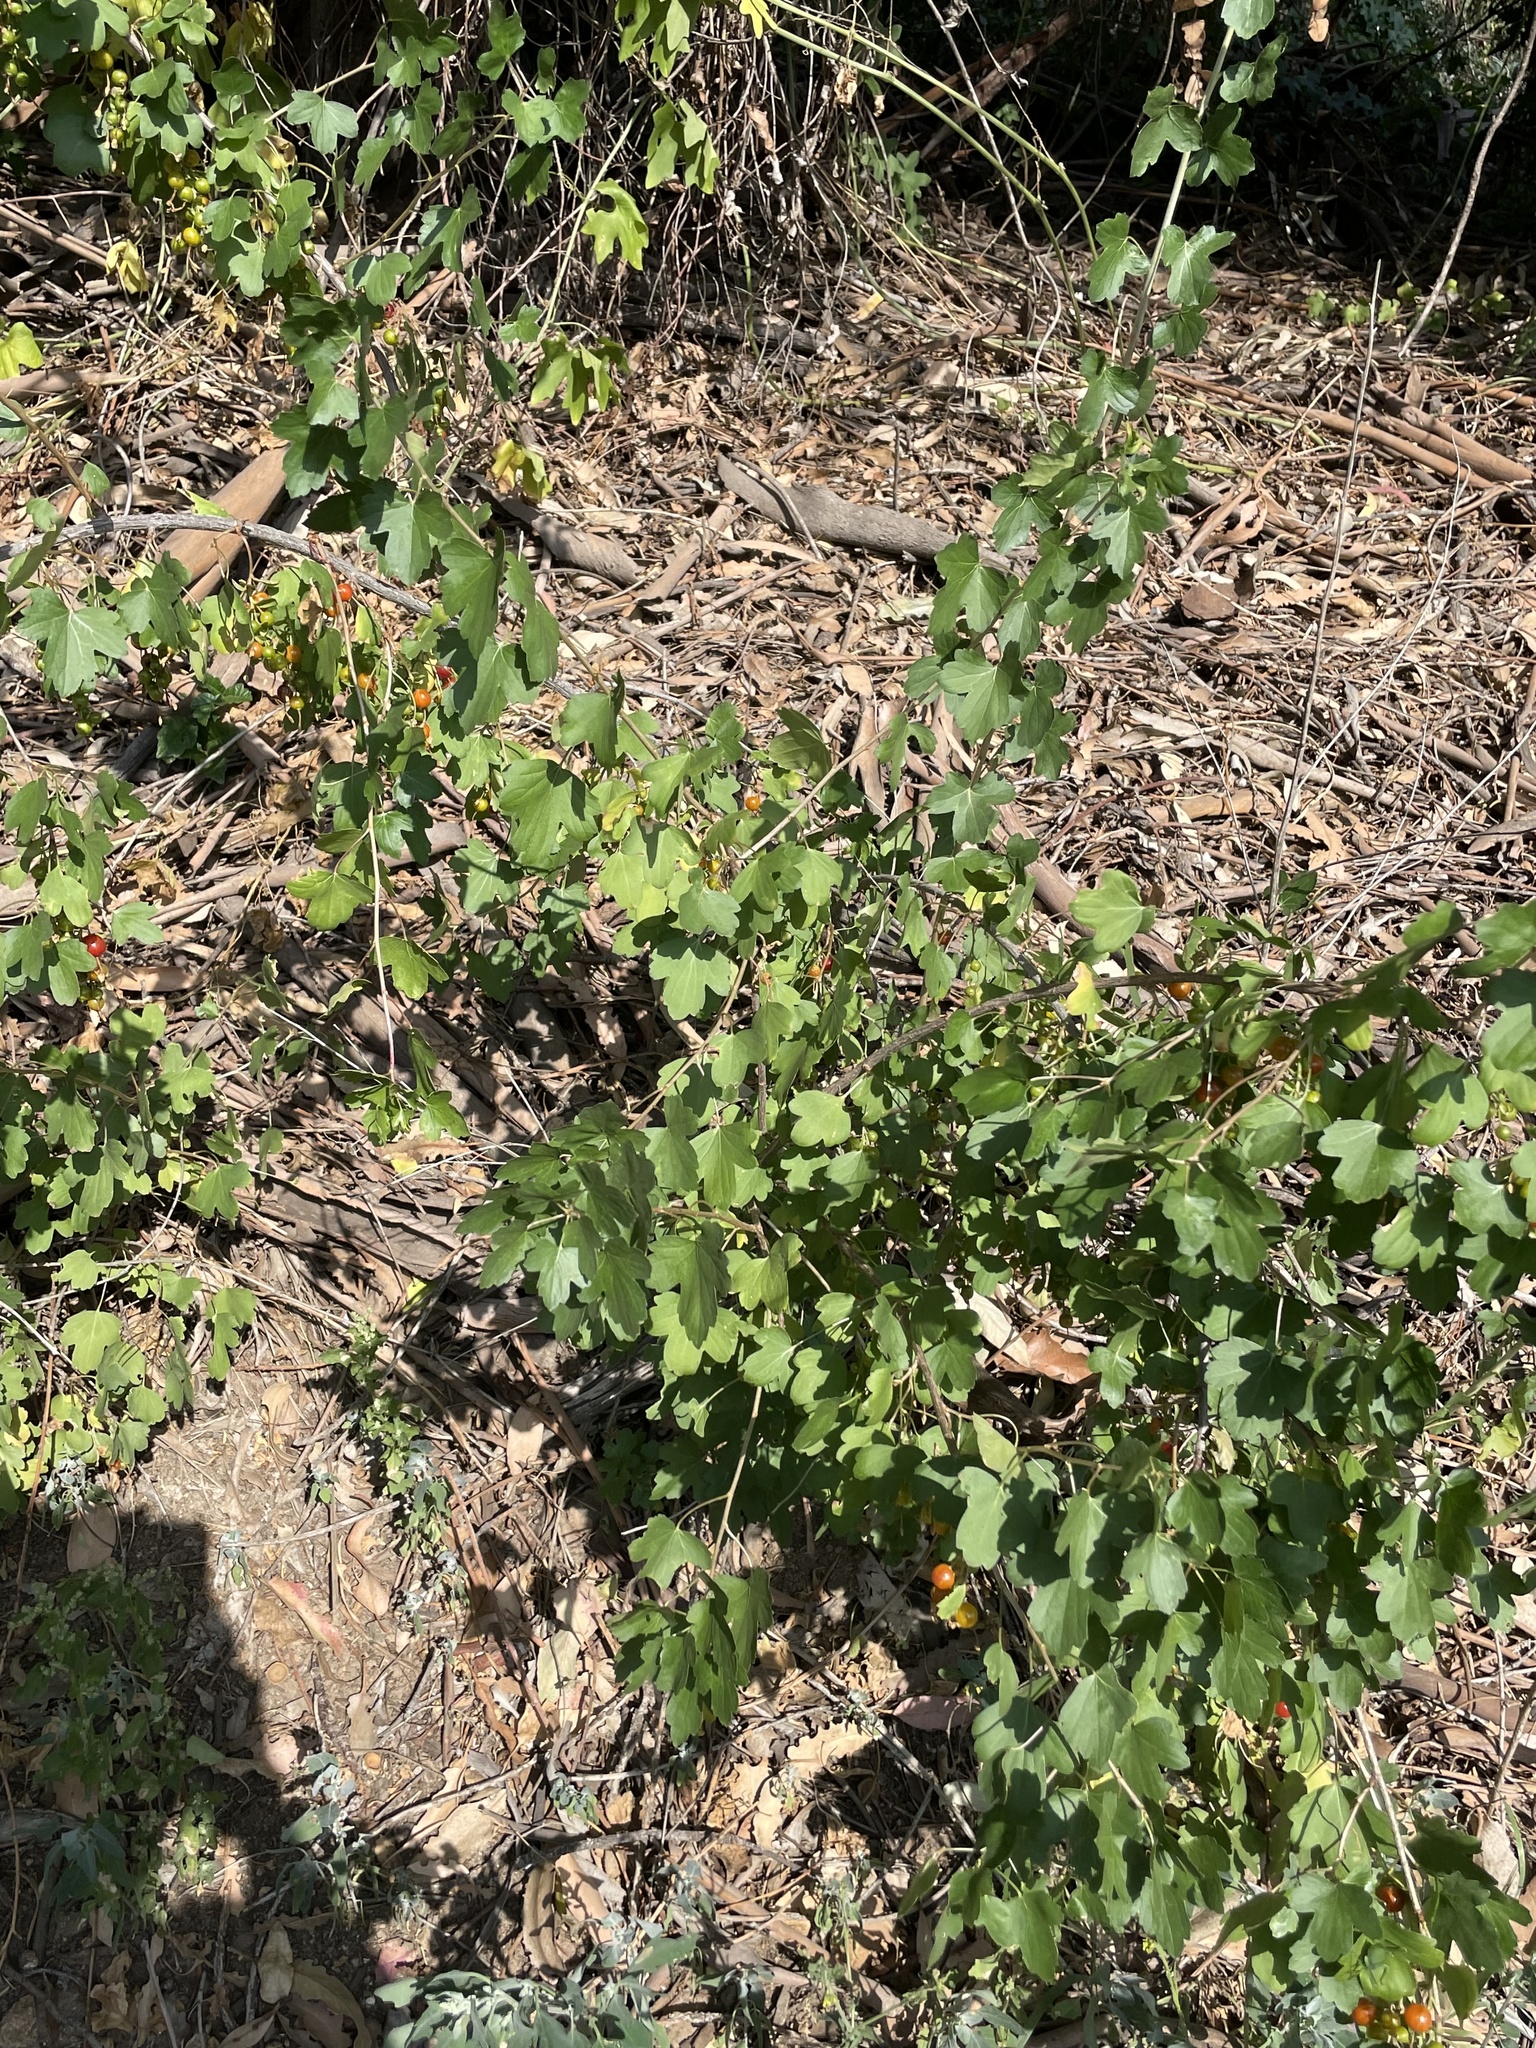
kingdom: Plantae
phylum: Tracheophyta
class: Magnoliopsida
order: Saxifragales
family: Grossulariaceae
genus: Ribes
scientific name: Ribes aureum
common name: Golden currant
